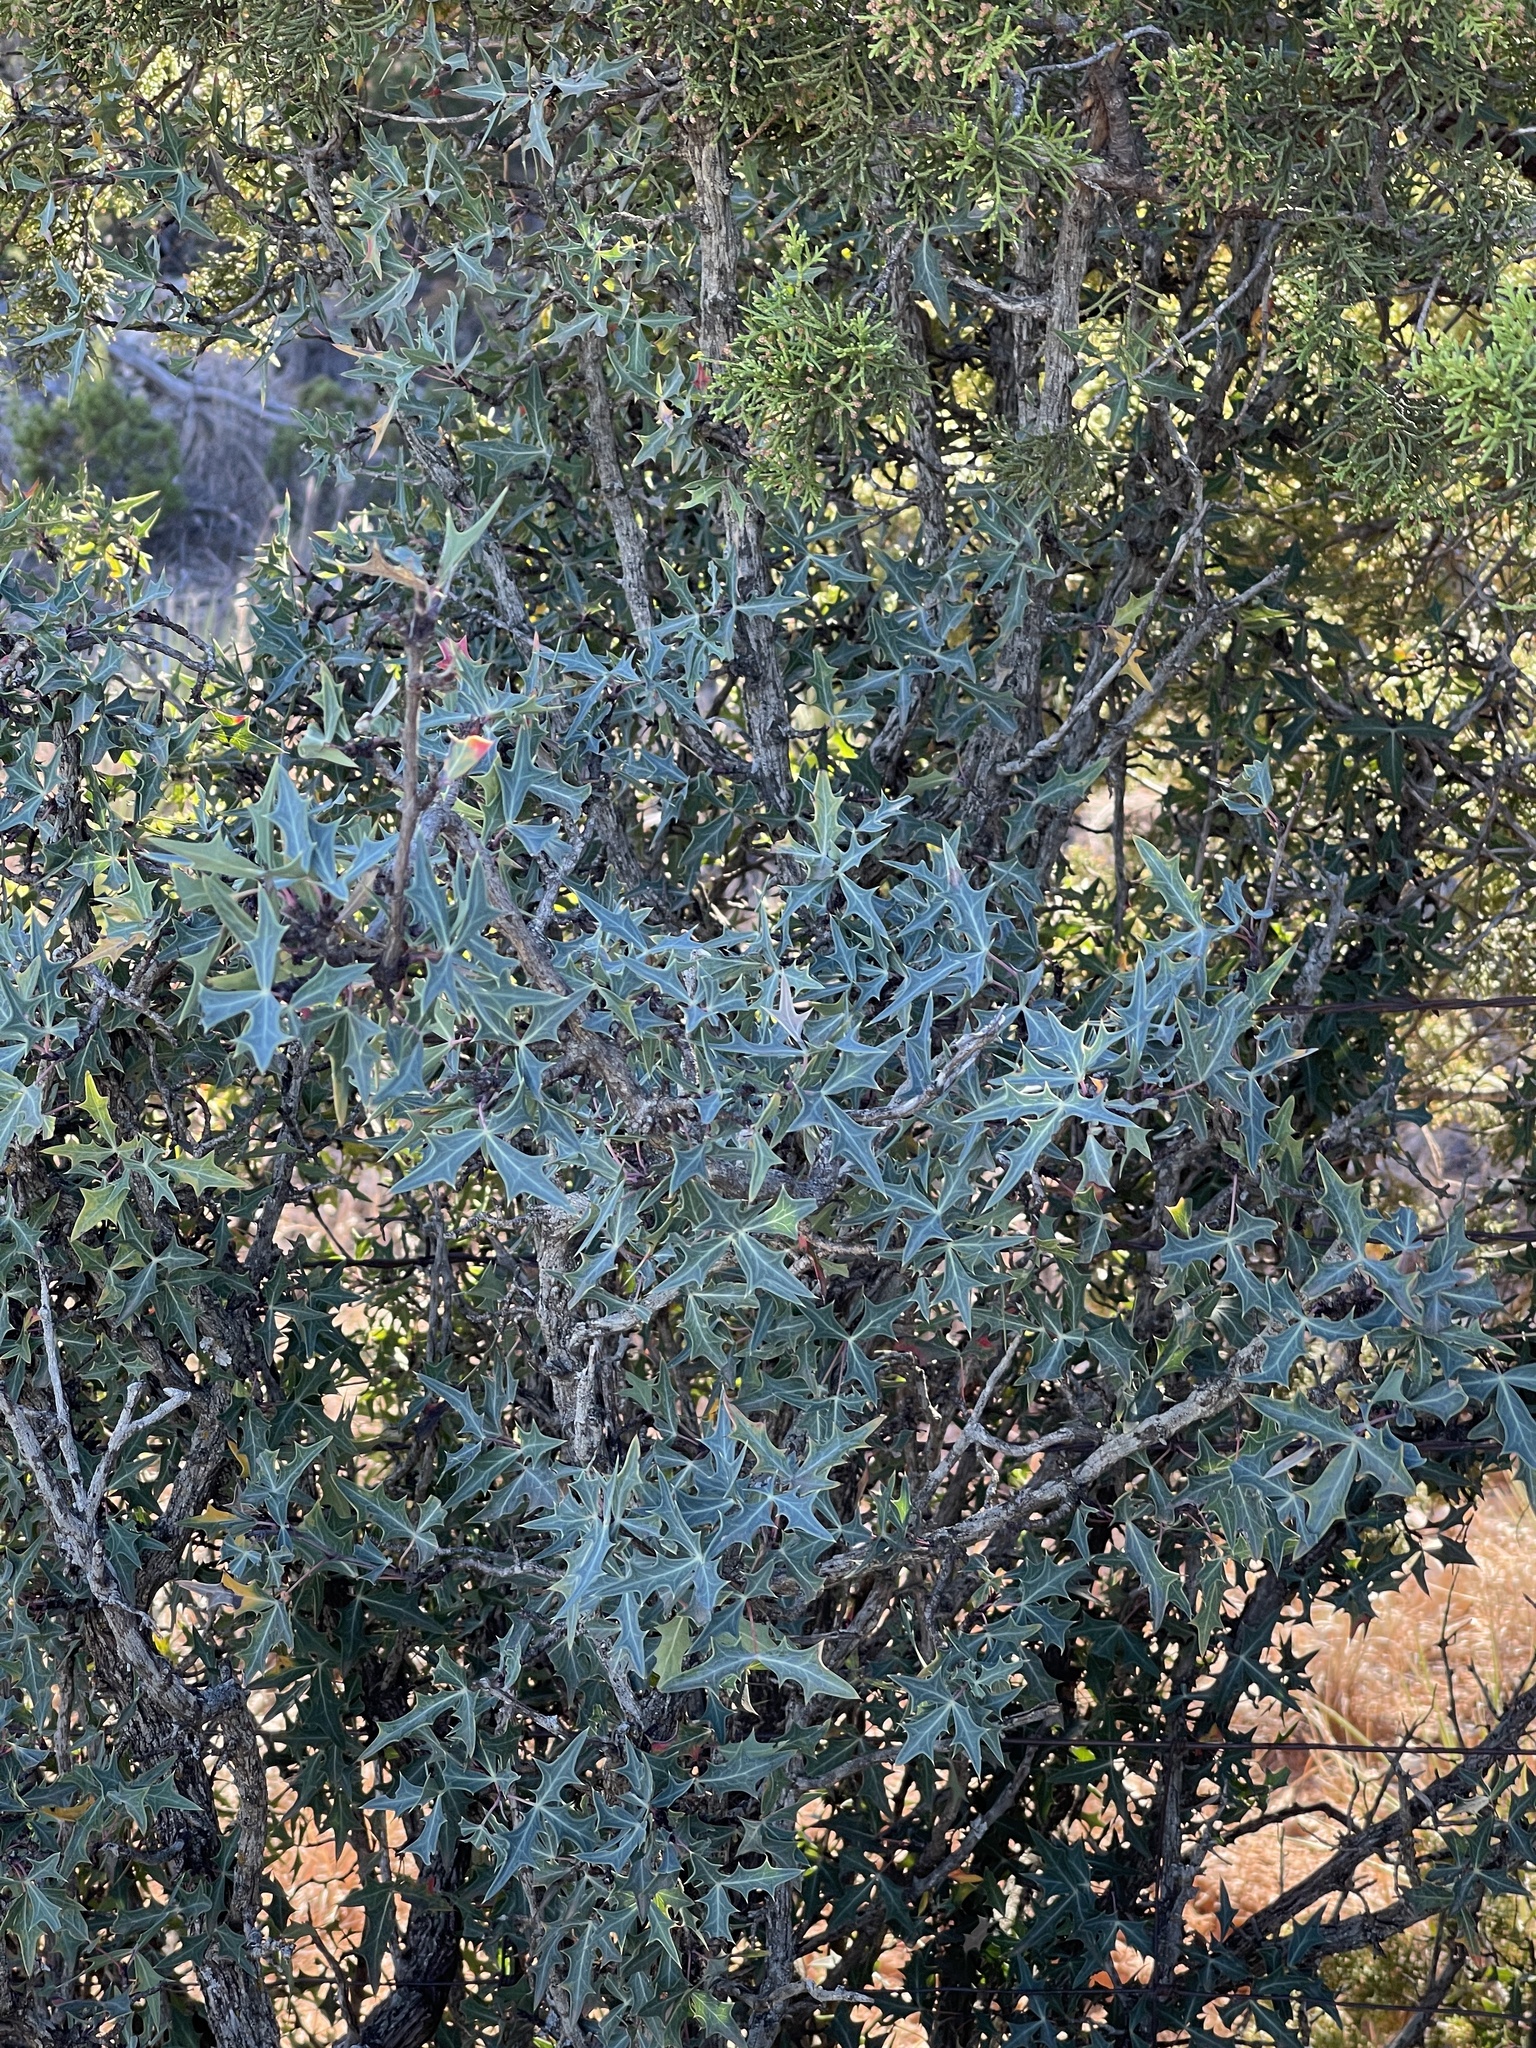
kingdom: Plantae
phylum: Tracheophyta
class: Magnoliopsida
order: Ranunculales
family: Berberidaceae
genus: Alloberberis
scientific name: Alloberberis trifoliolata
